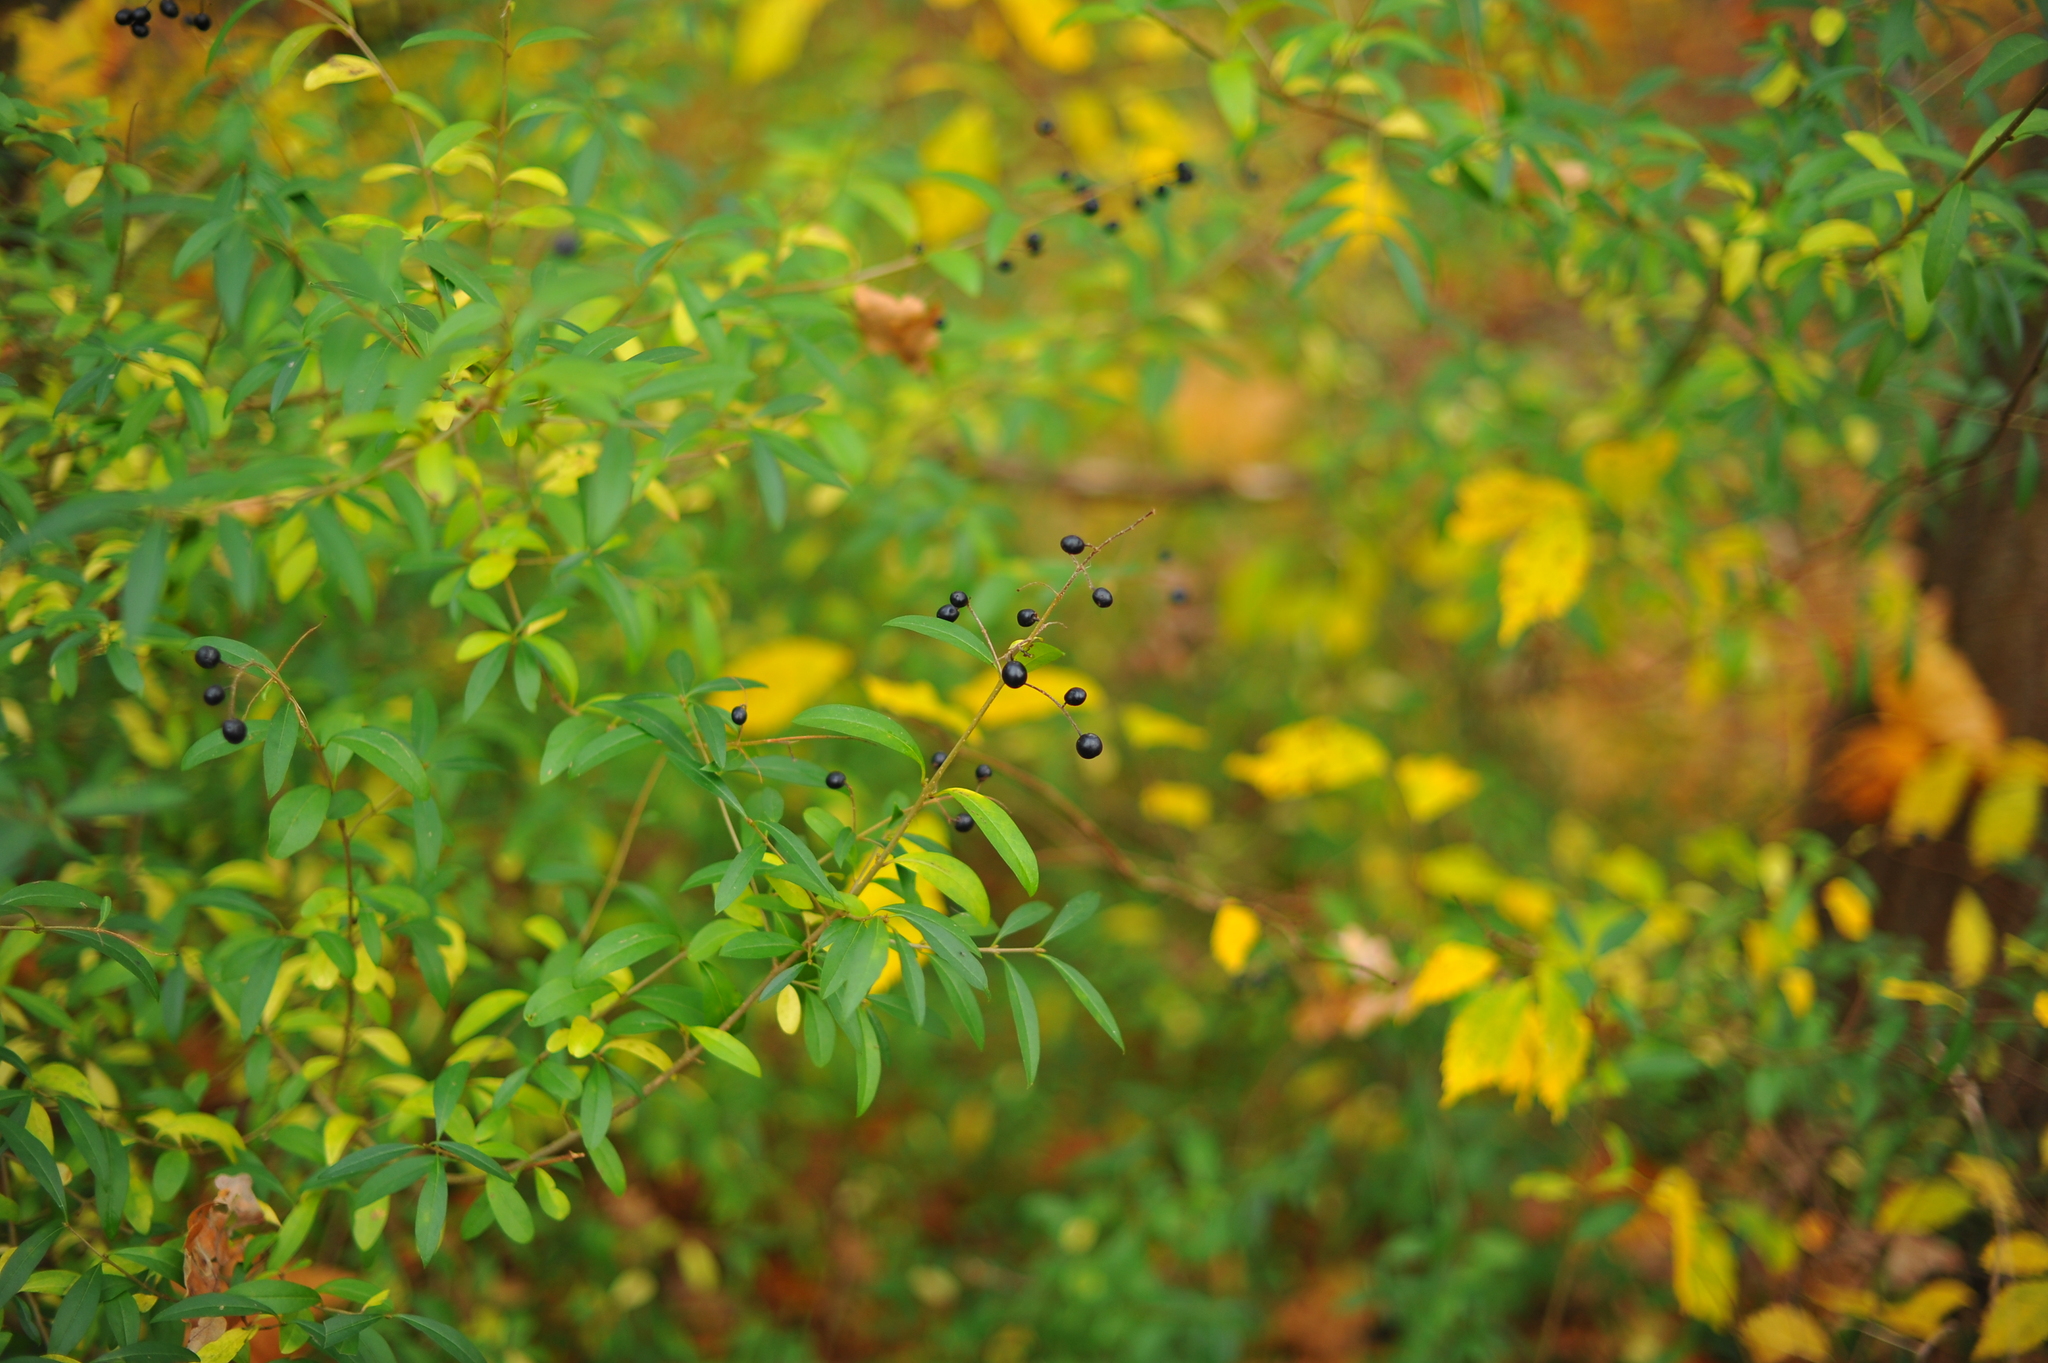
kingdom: Plantae
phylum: Tracheophyta
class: Magnoliopsida
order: Lamiales
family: Oleaceae
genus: Ligustrum
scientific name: Ligustrum vulgare
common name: Wild privet
